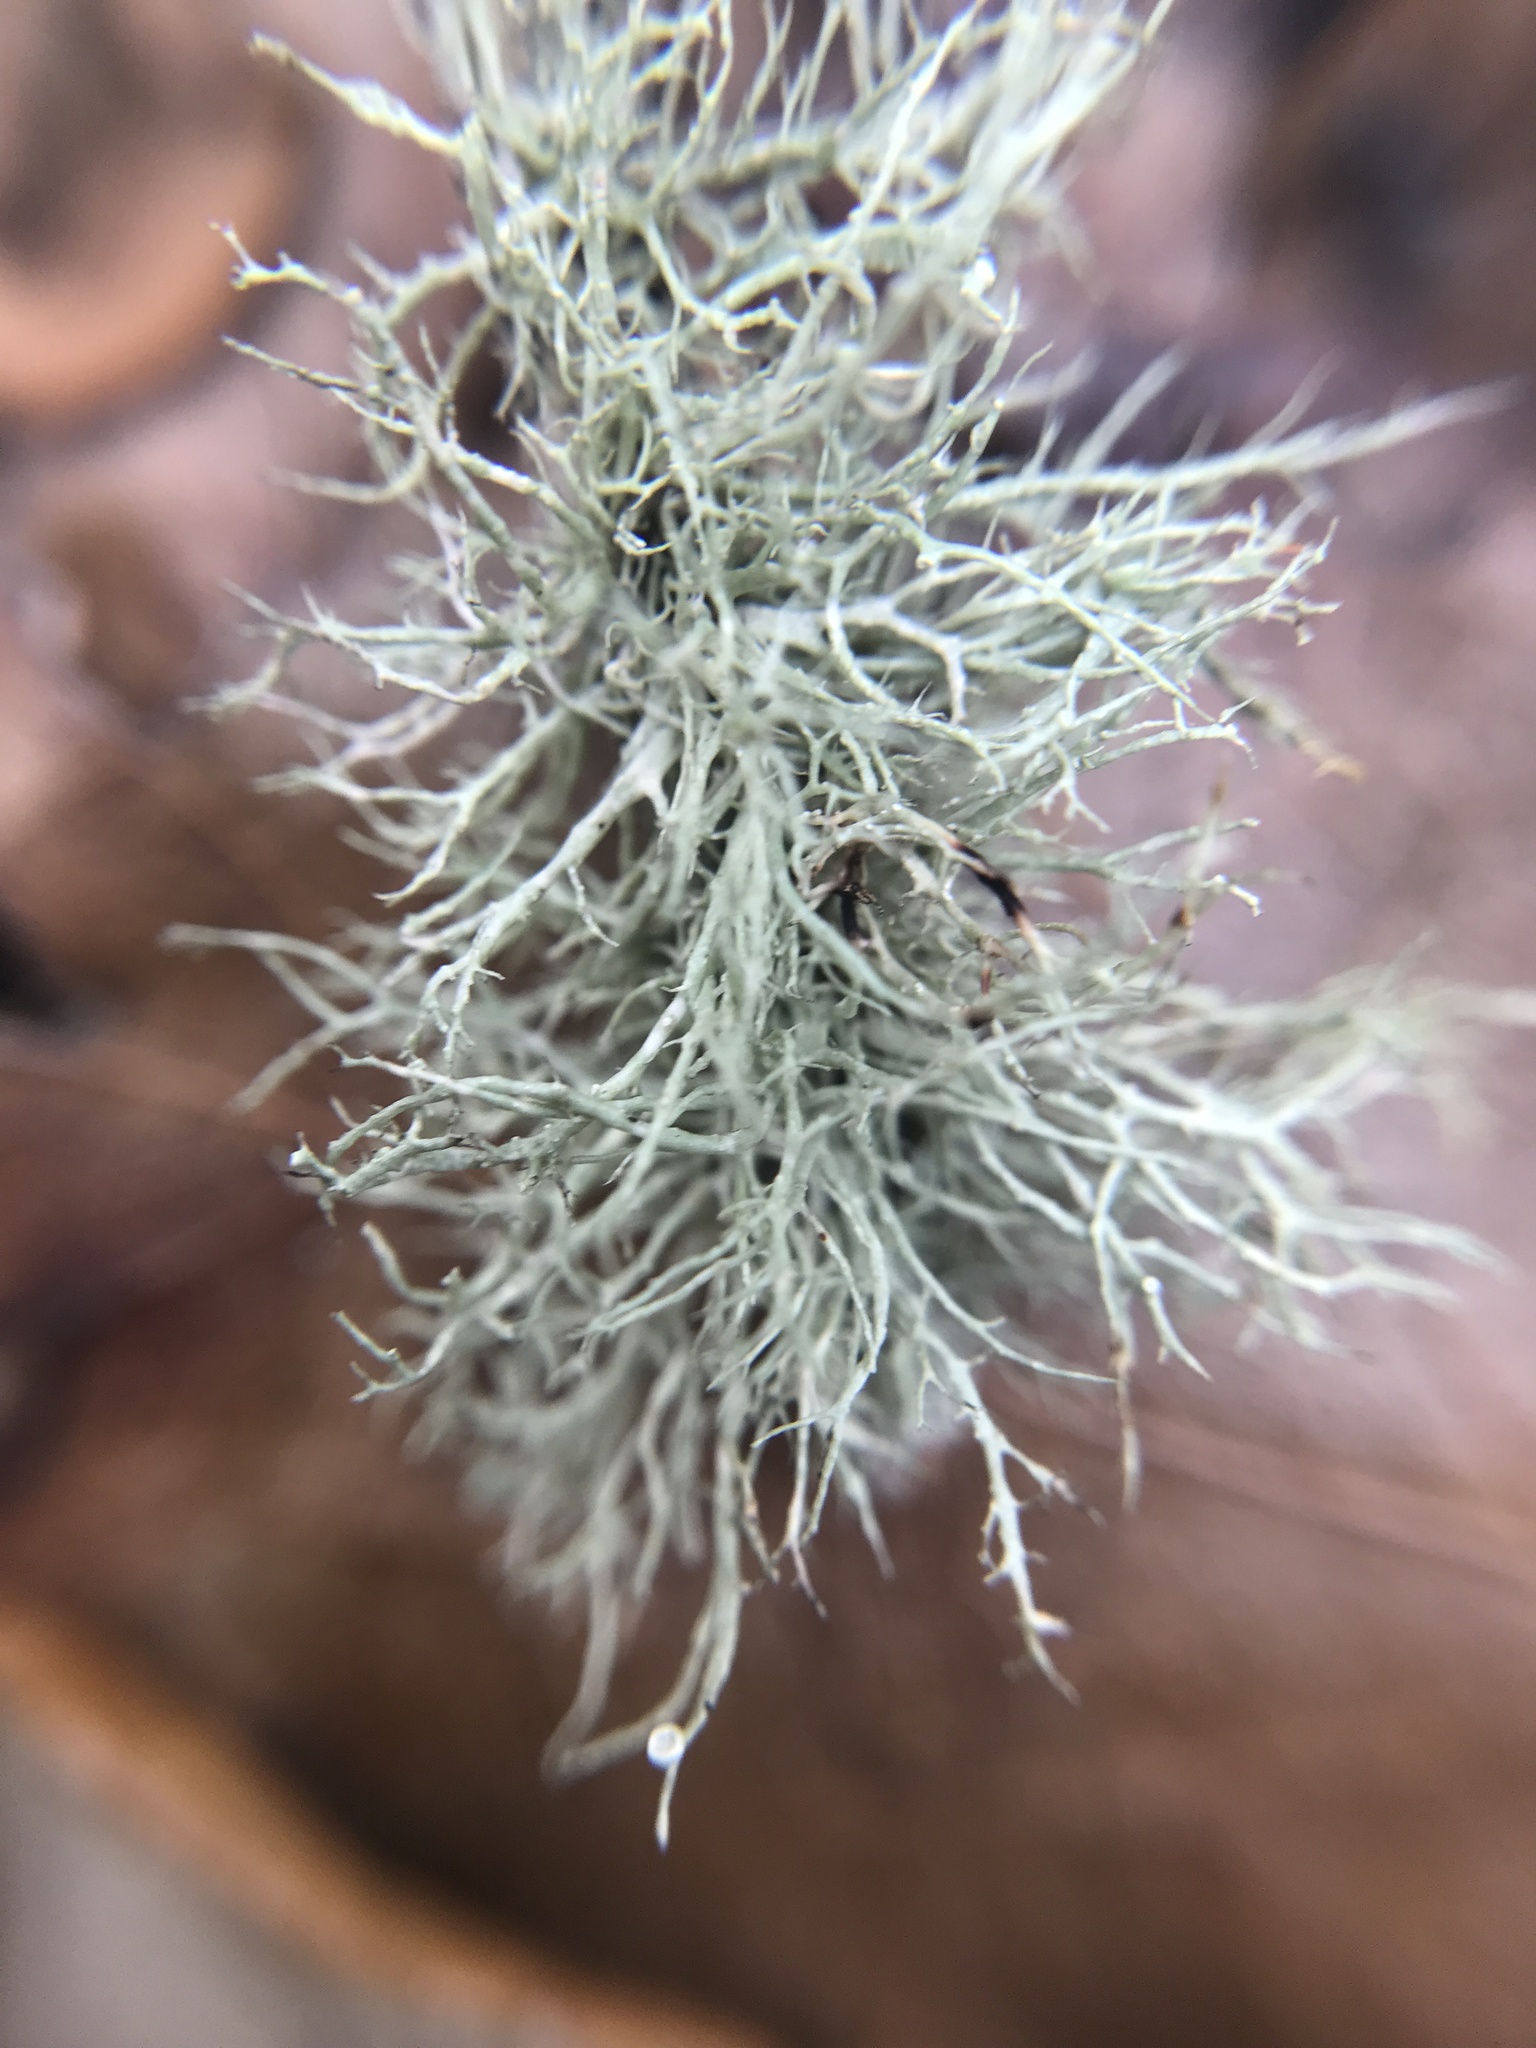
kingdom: Fungi
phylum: Ascomycota
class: Lecanoromycetes
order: Lecanorales
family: Ramalinaceae
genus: Ramalina
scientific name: Ramalina montagnei
